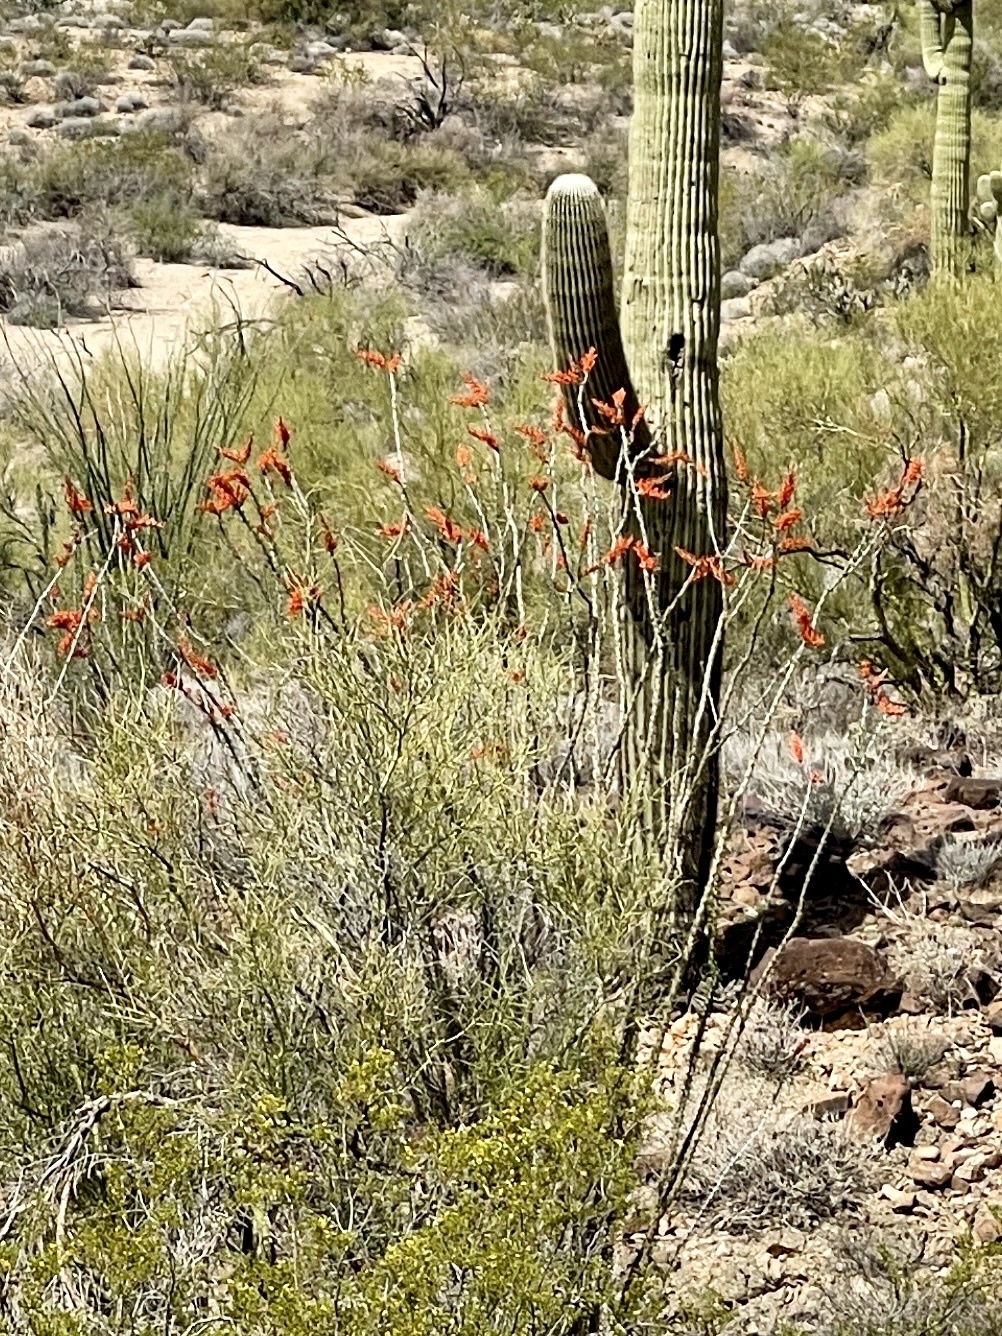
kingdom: Plantae
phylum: Tracheophyta
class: Magnoliopsida
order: Ericales
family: Fouquieriaceae
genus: Fouquieria
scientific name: Fouquieria splendens
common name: Vine-cactus
